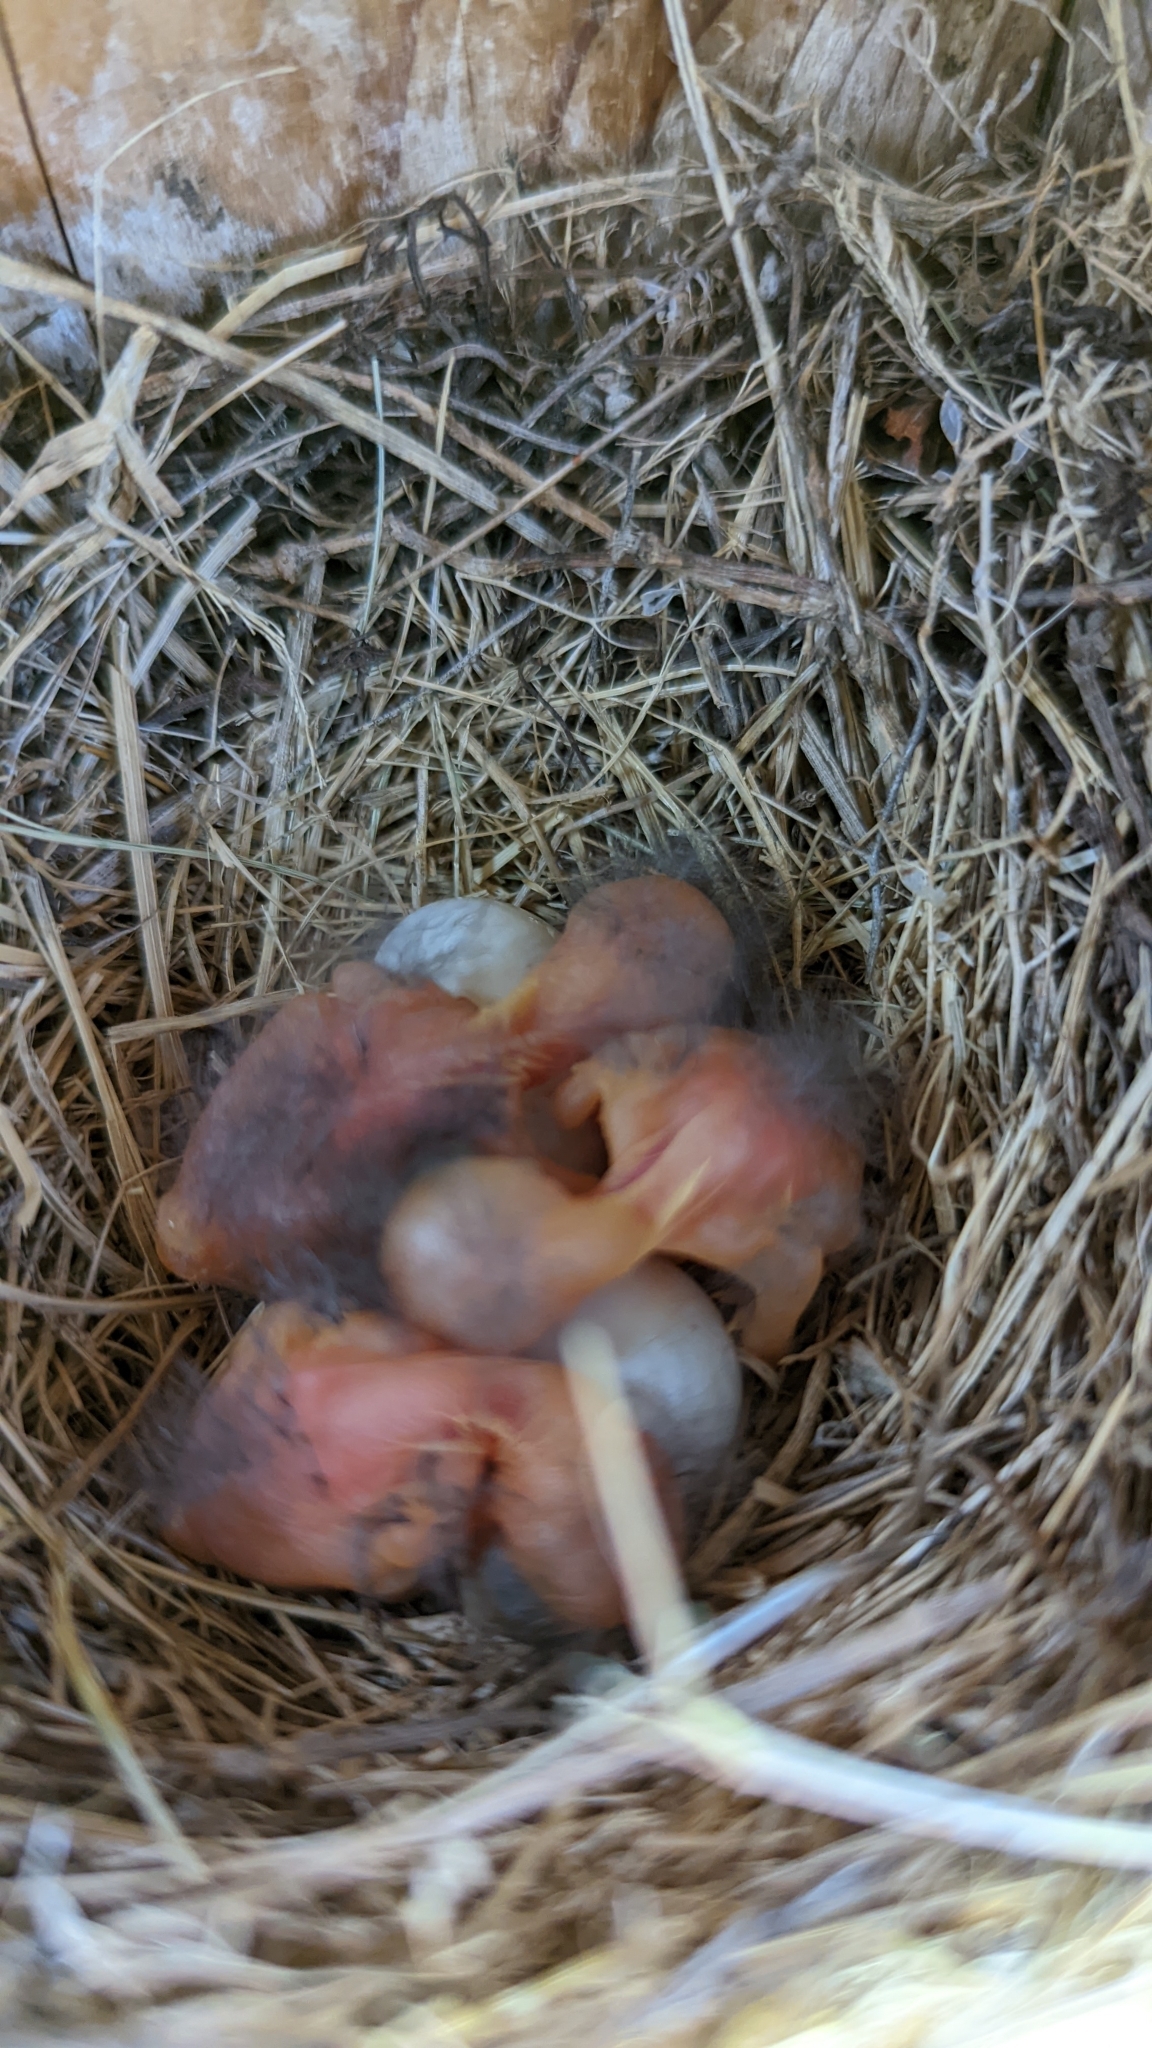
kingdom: Animalia
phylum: Chordata
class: Aves
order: Passeriformes
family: Turdidae
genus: Sialia
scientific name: Sialia sialis
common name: Eastern bluebird
